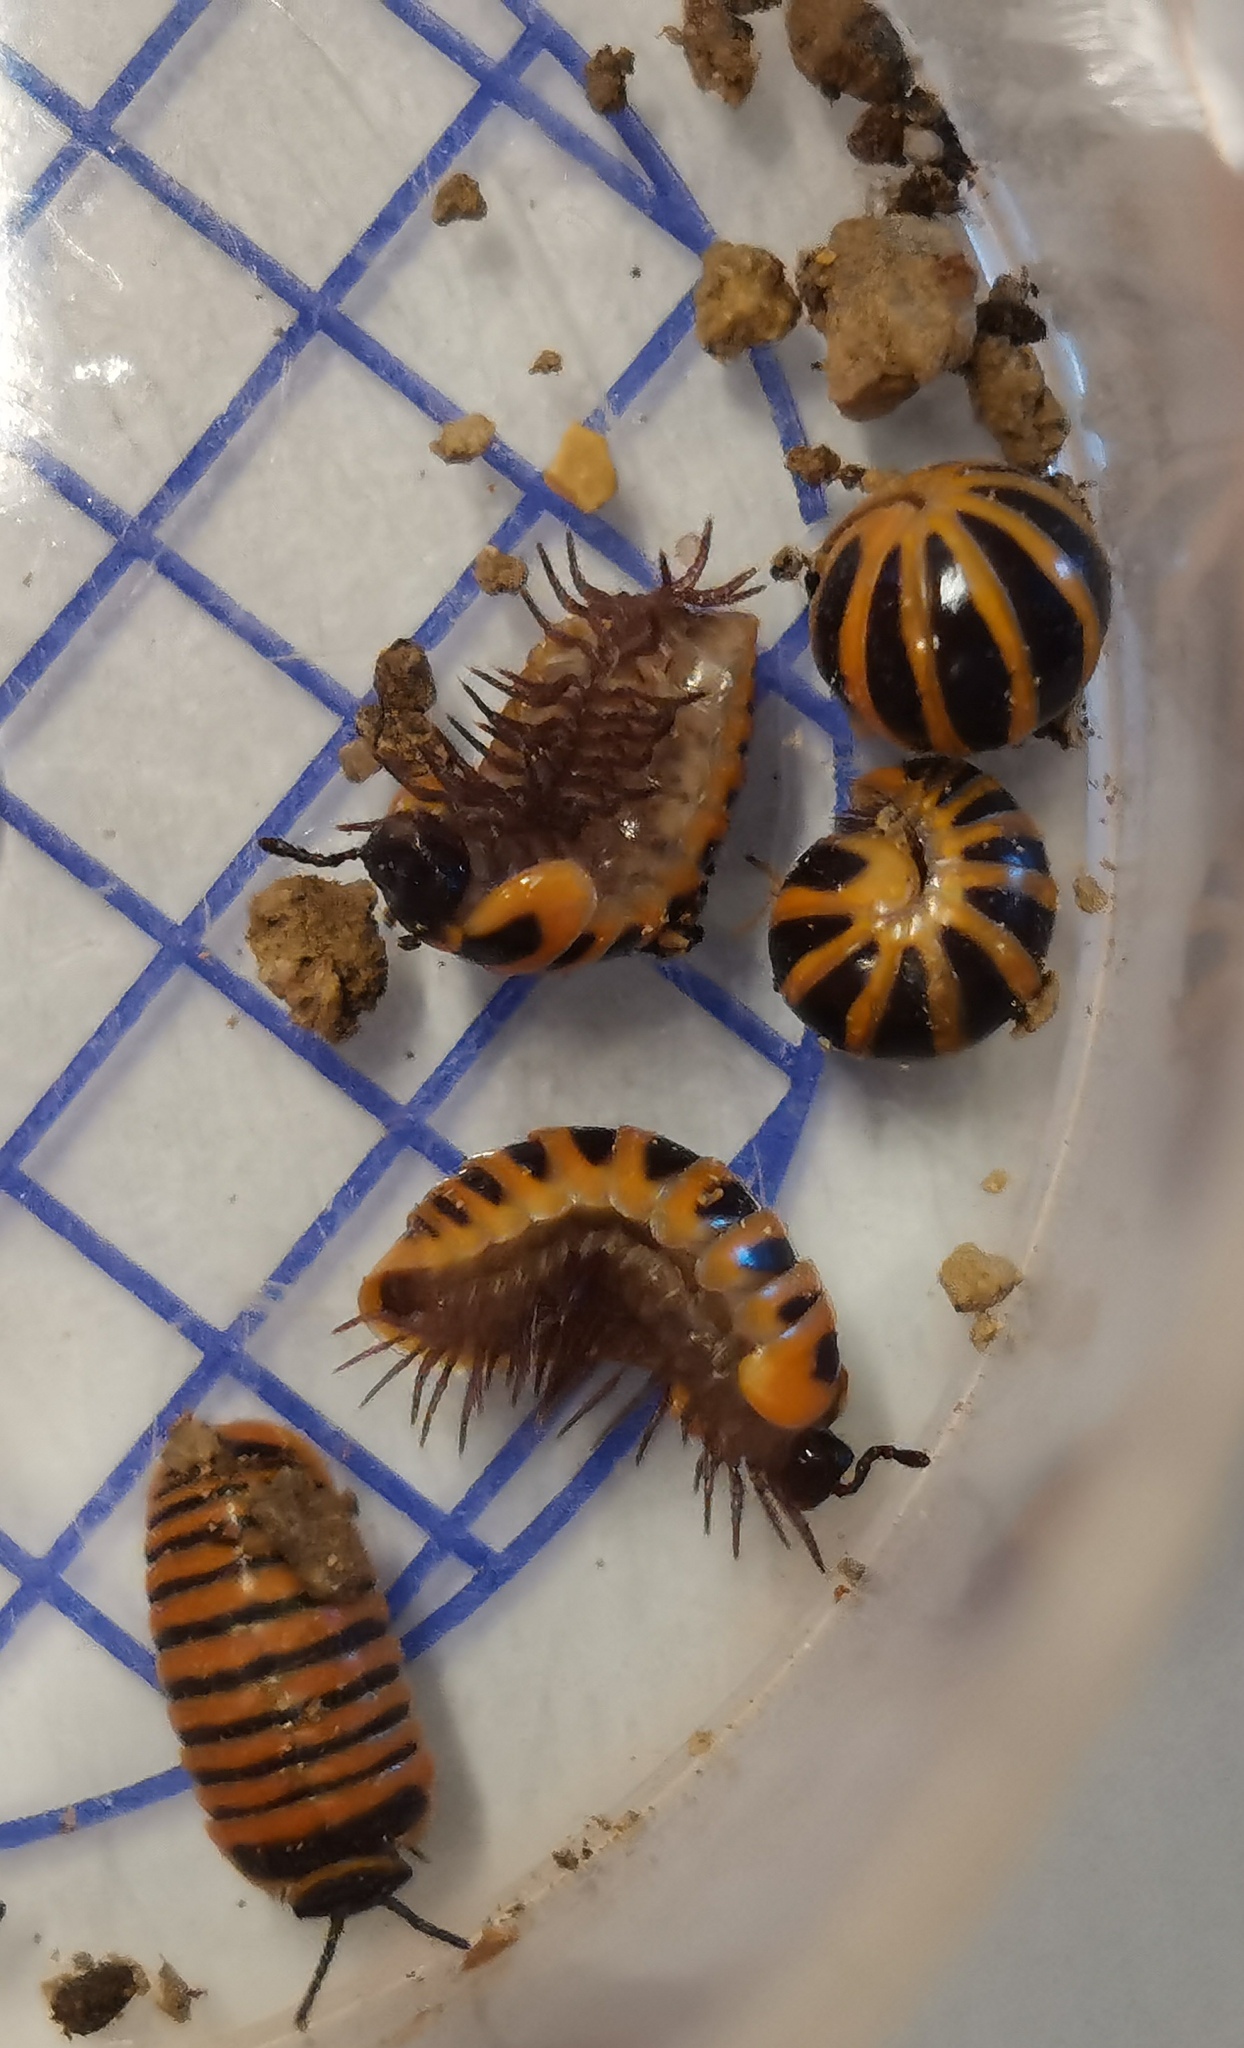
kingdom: Animalia
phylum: Arthropoda
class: Diplopoda
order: Glomerida
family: Glomeridae
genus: Glomeris
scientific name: Glomeris annulata
